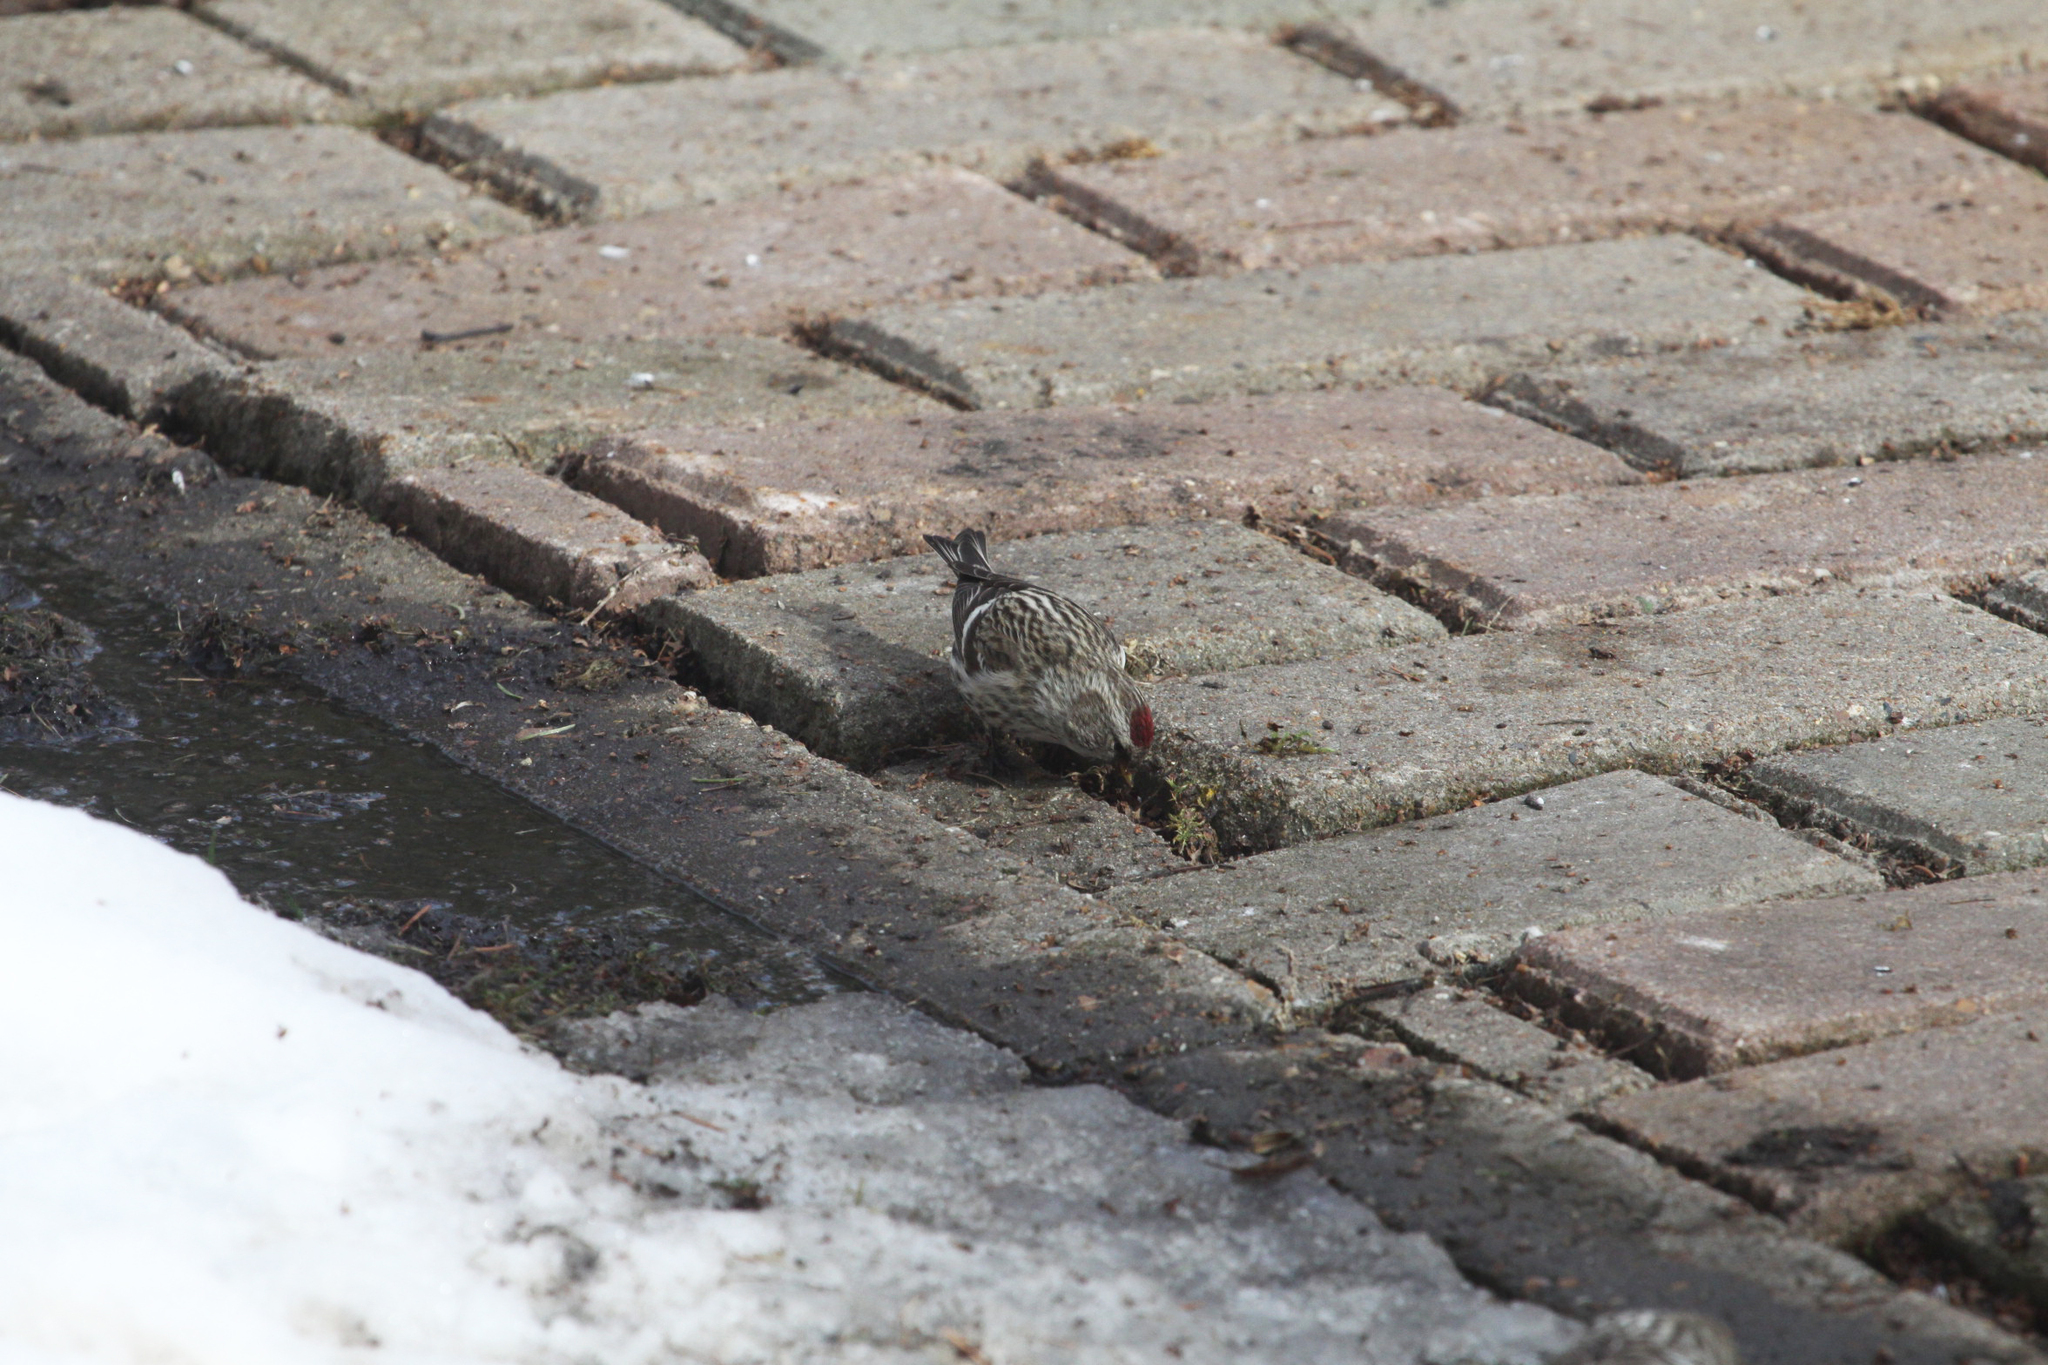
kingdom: Animalia
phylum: Chordata
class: Aves
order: Passeriformes
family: Fringillidae
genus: Acanthis
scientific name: Acanthis flammea
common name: Common redpoll
